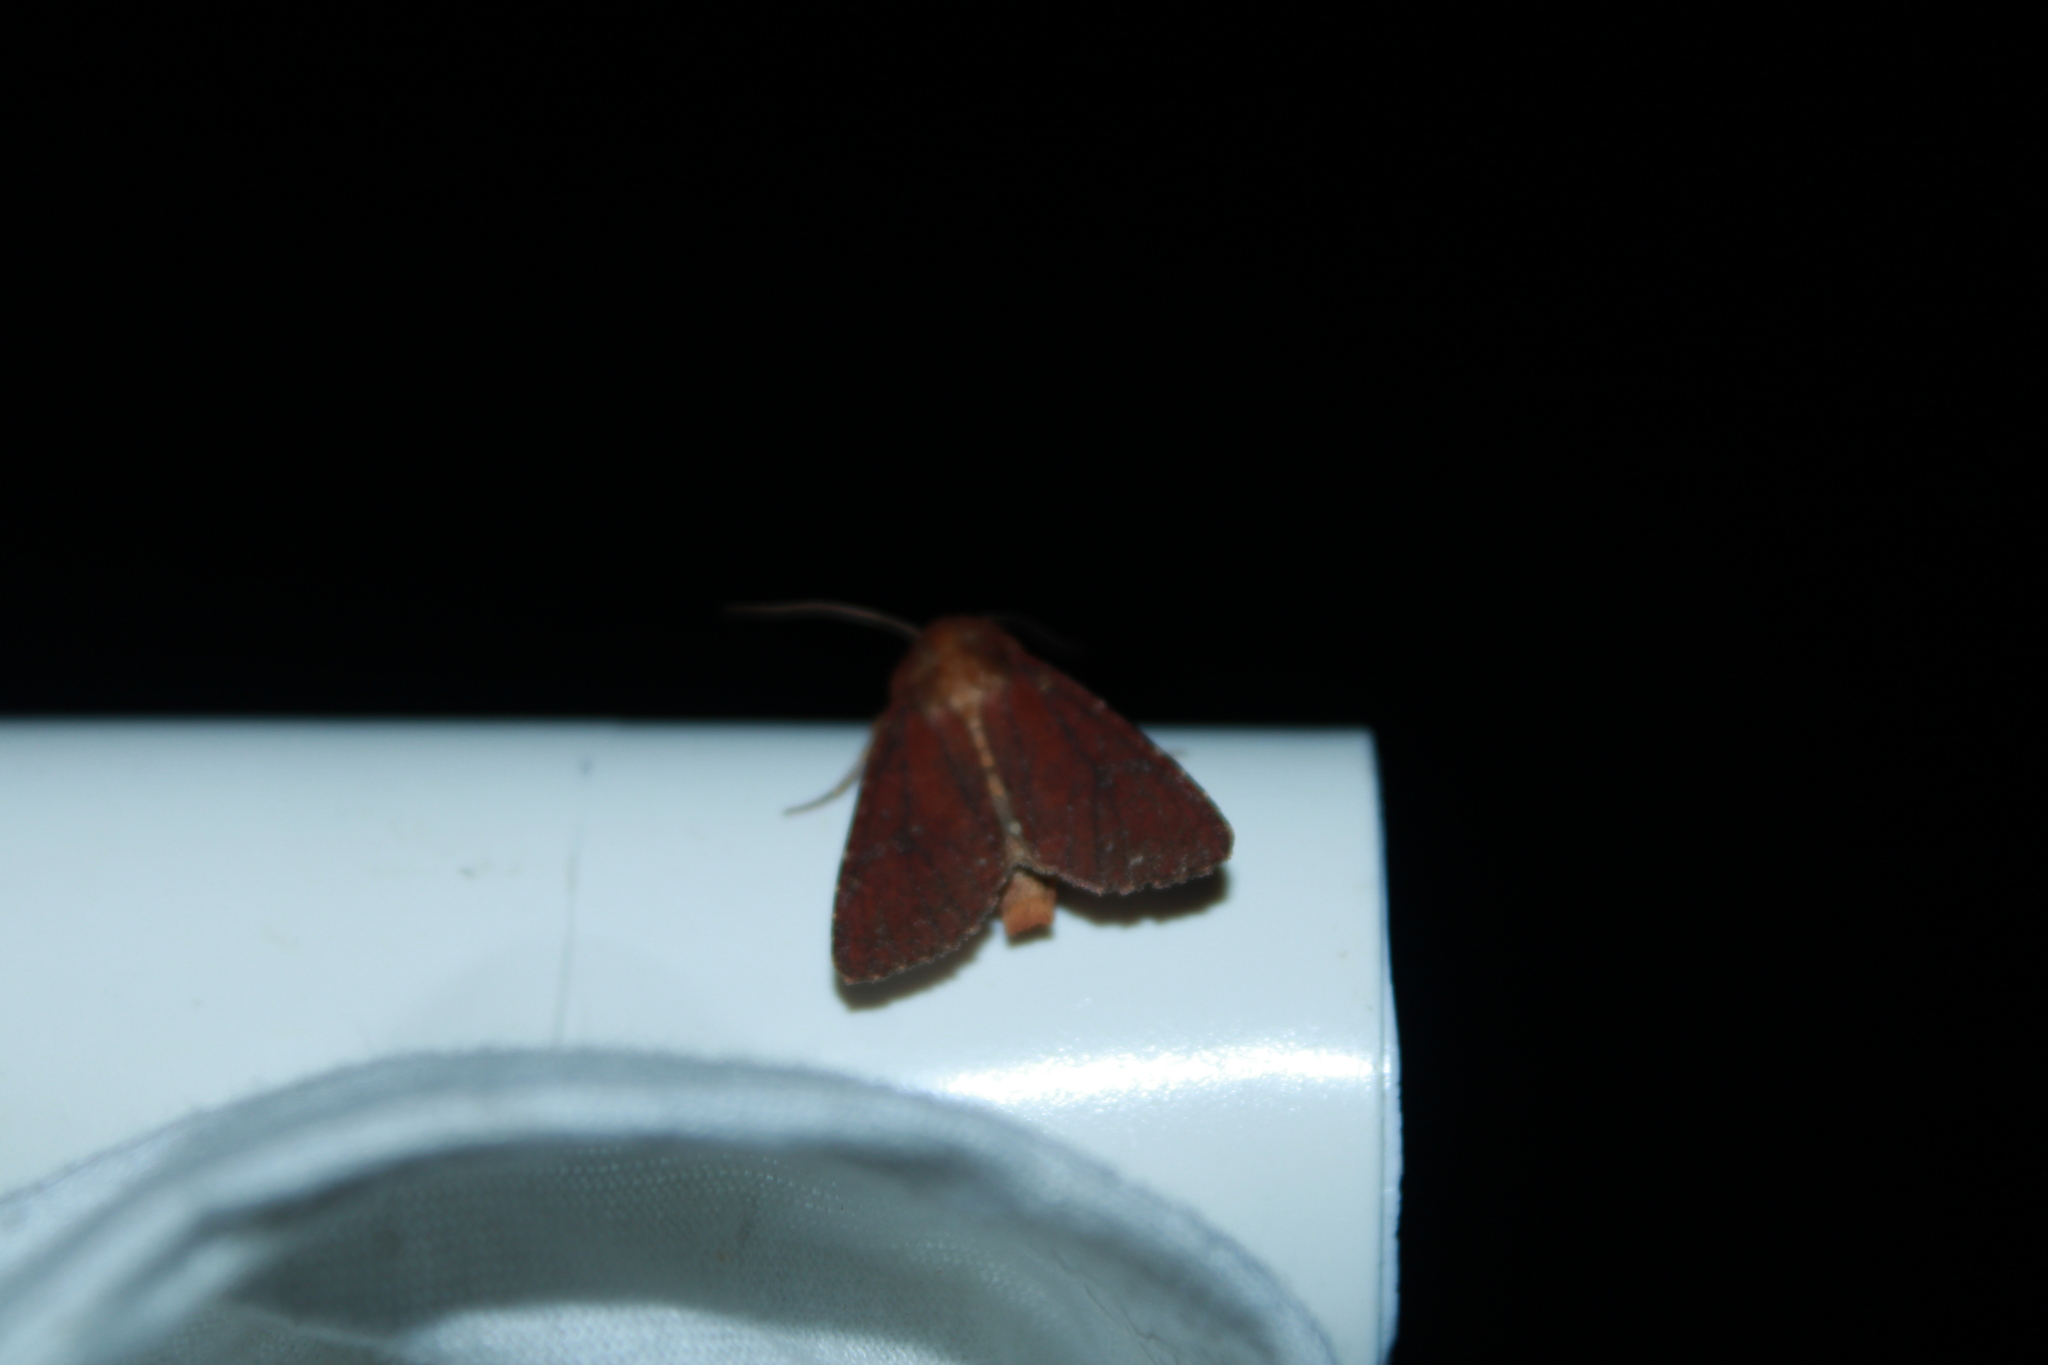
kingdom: Animalia
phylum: Arthropoda
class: Insecta
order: Lepidoptera
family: Noctuidae
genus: Sideridis
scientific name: Sideridis maryx
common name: Maroonwing moth
